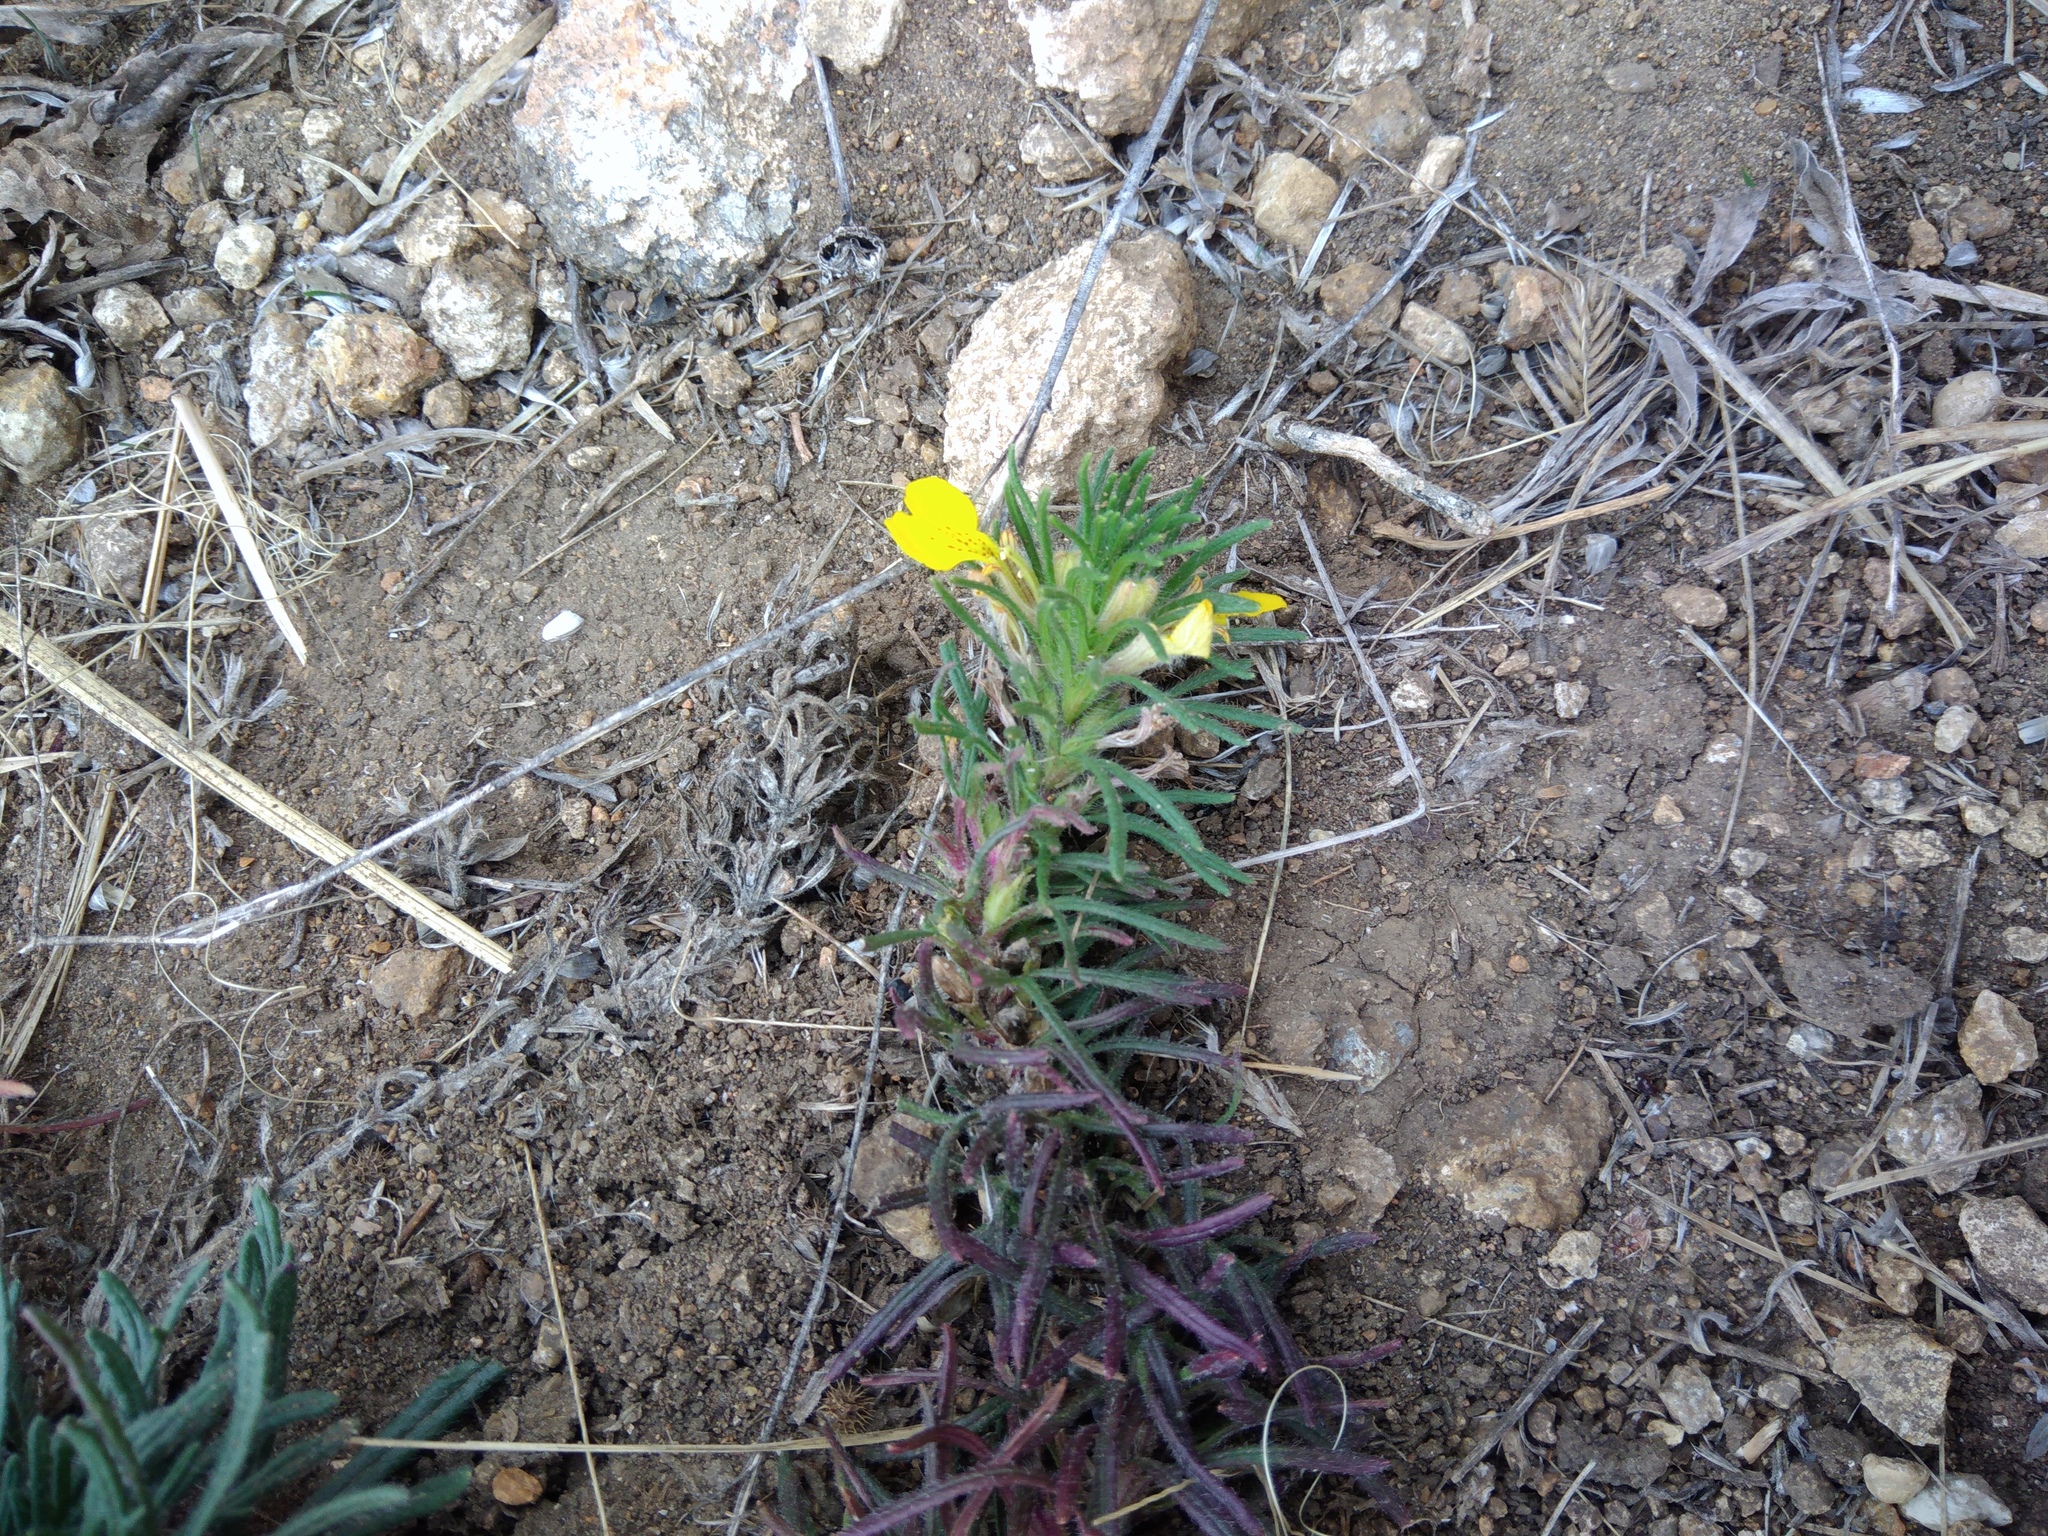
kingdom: Plantae
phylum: Tracheophyta
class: Magnoliopsida
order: Lamiales
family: Lamiaceae
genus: Ajuga
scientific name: Ajuga chamaepitys
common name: Ground-pine
